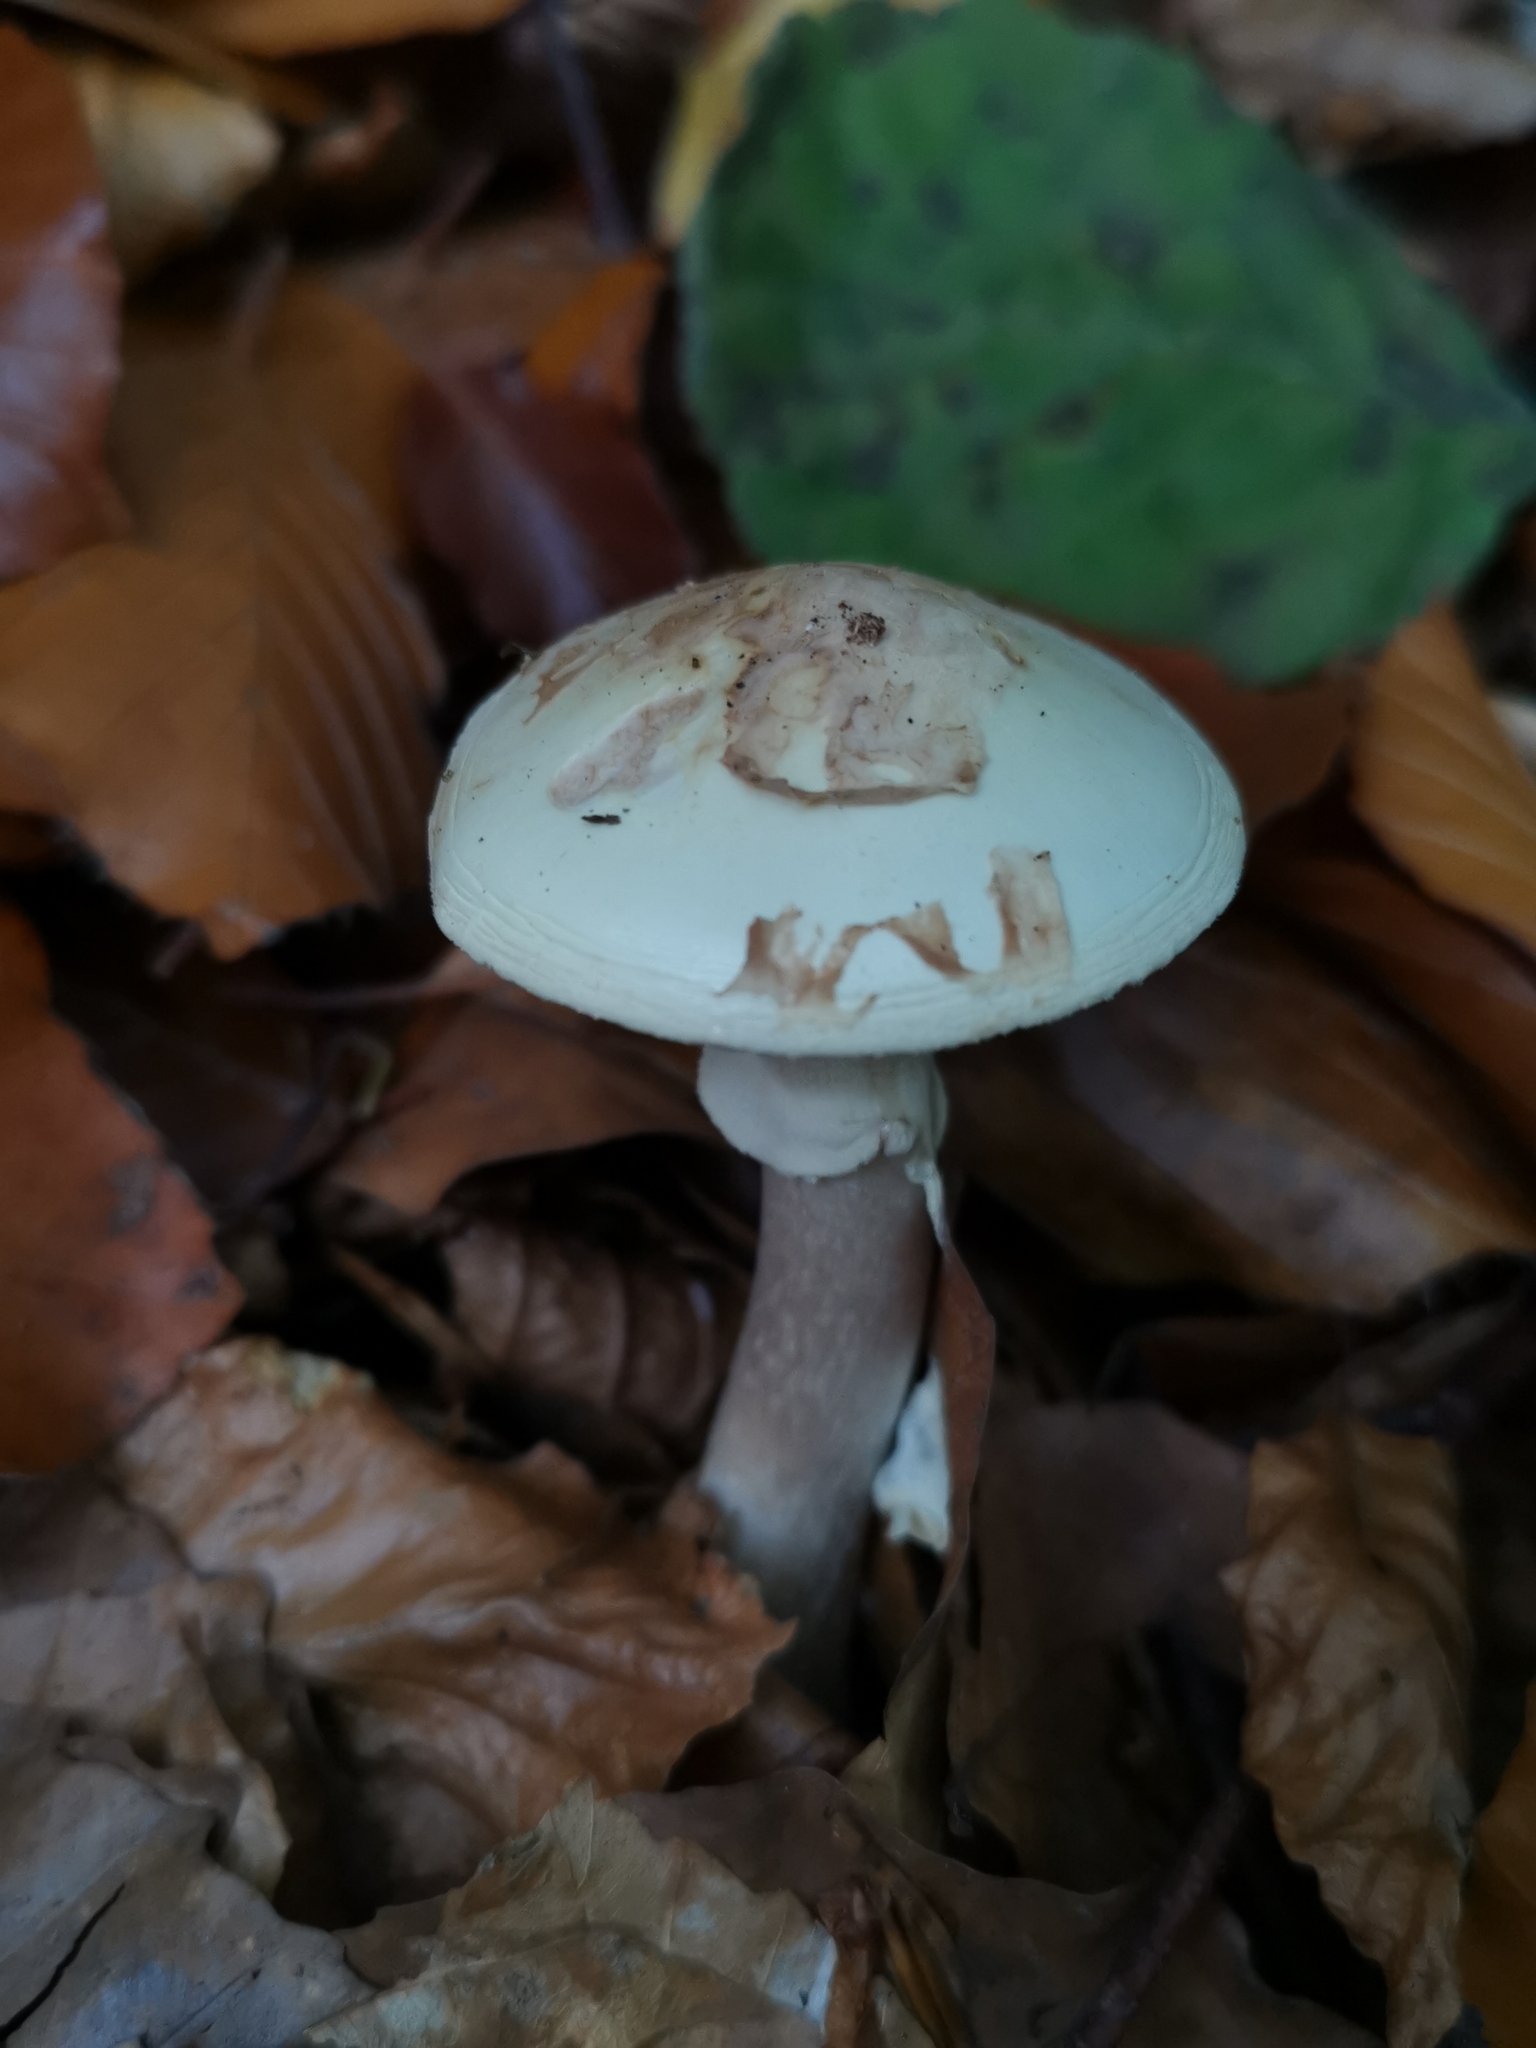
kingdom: Fungi
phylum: Basidiomycota
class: Agaricomycetes
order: Agaricales
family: Amanitaceae
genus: Amanita
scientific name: Amanita citrina
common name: False death-cap
